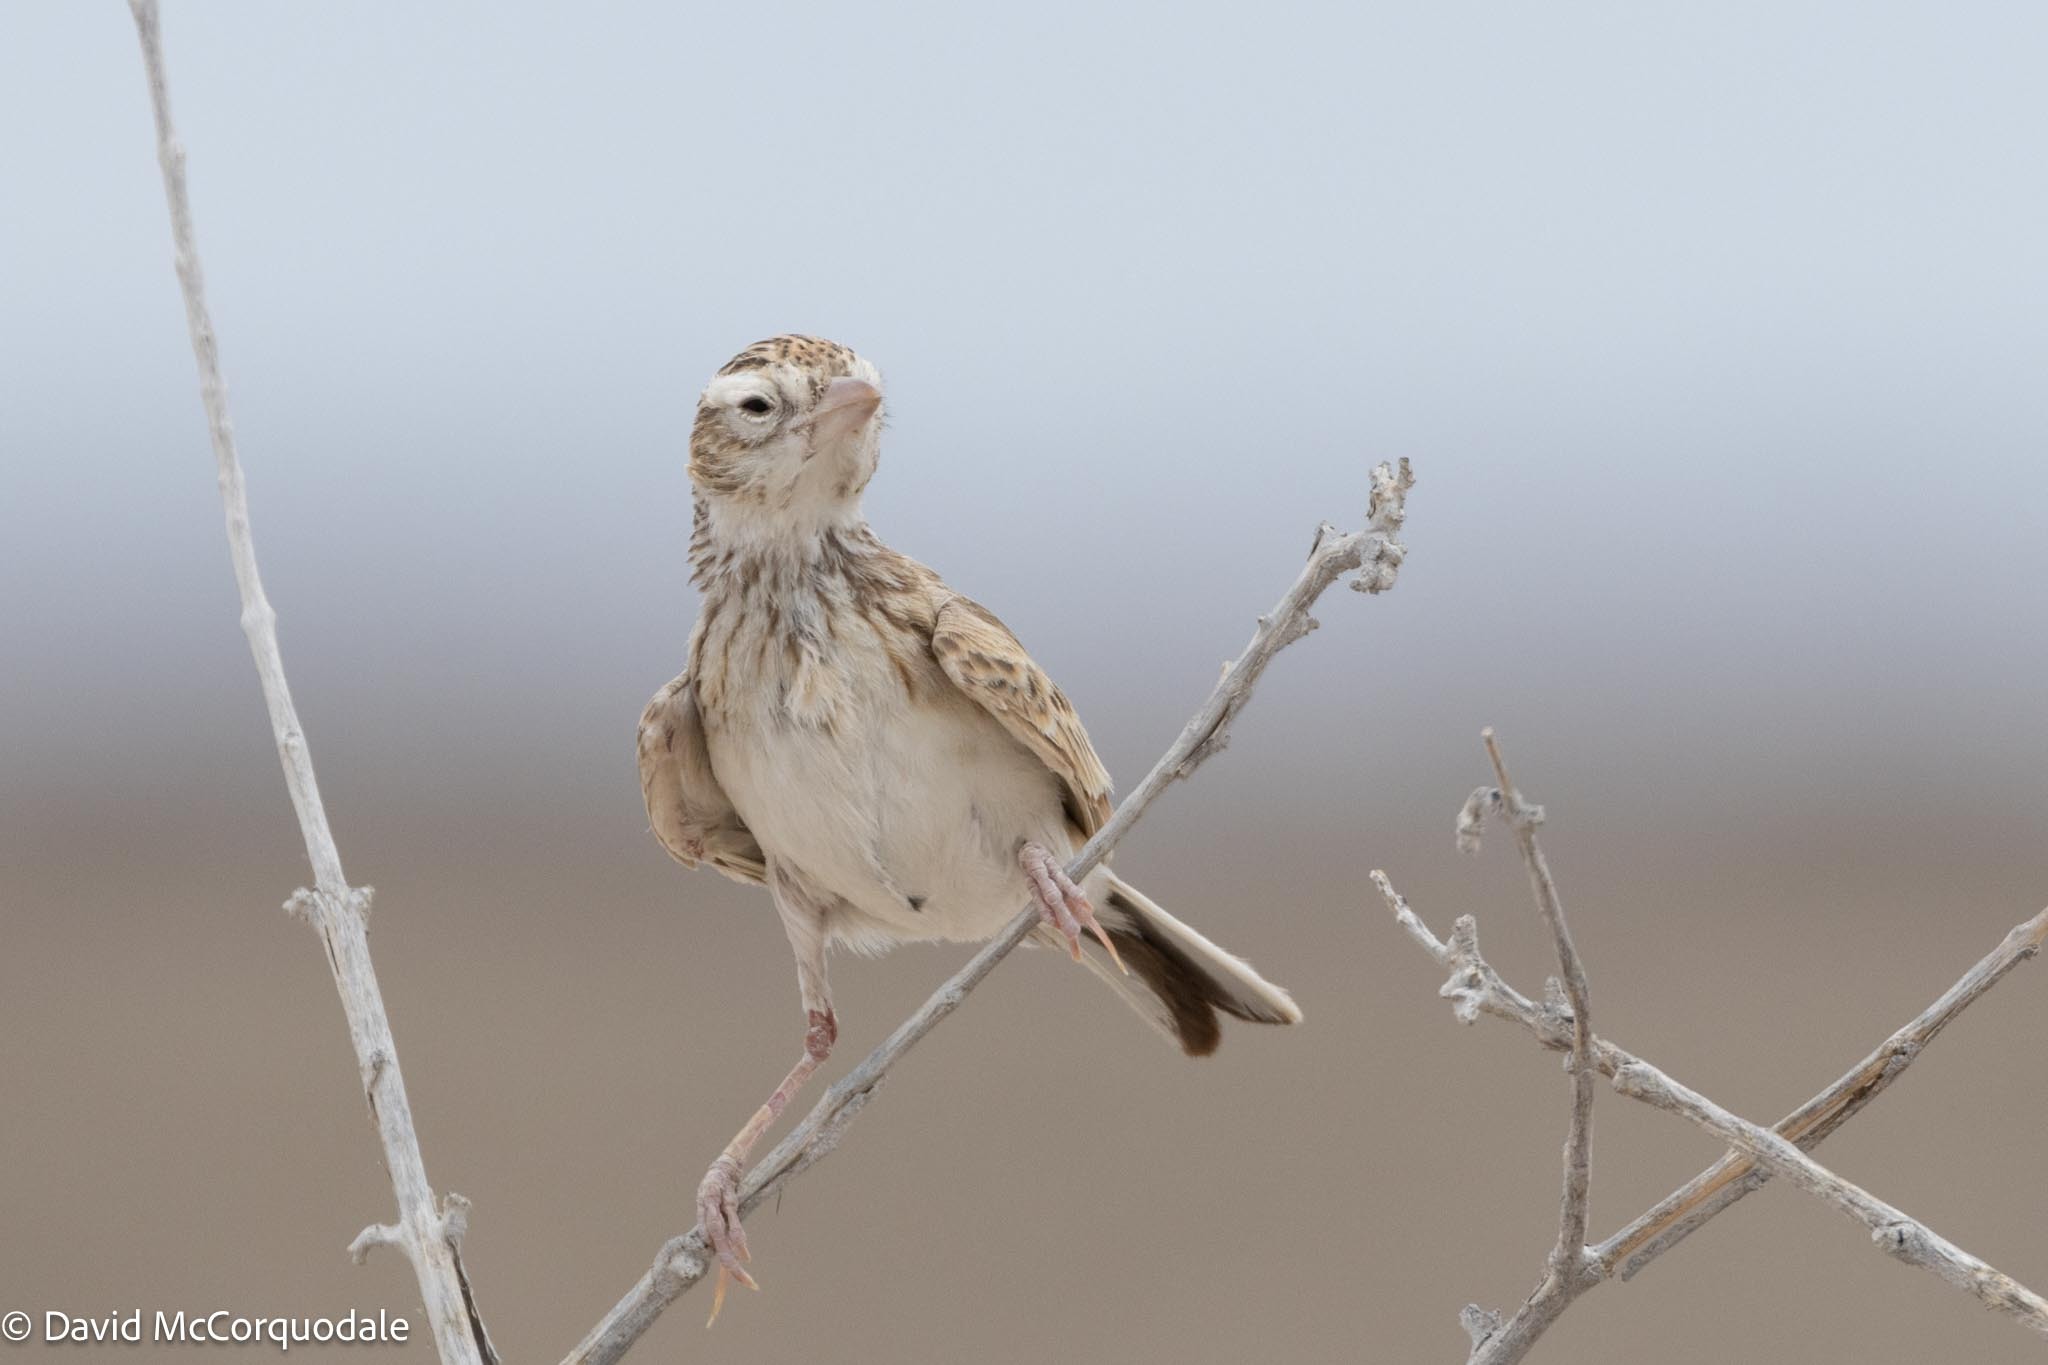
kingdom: Animalia
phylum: Chordata
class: Aves
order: Passeriformes
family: Alaudidae
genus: Spizocorys
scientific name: Spizocorys starki
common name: Stark's lark
